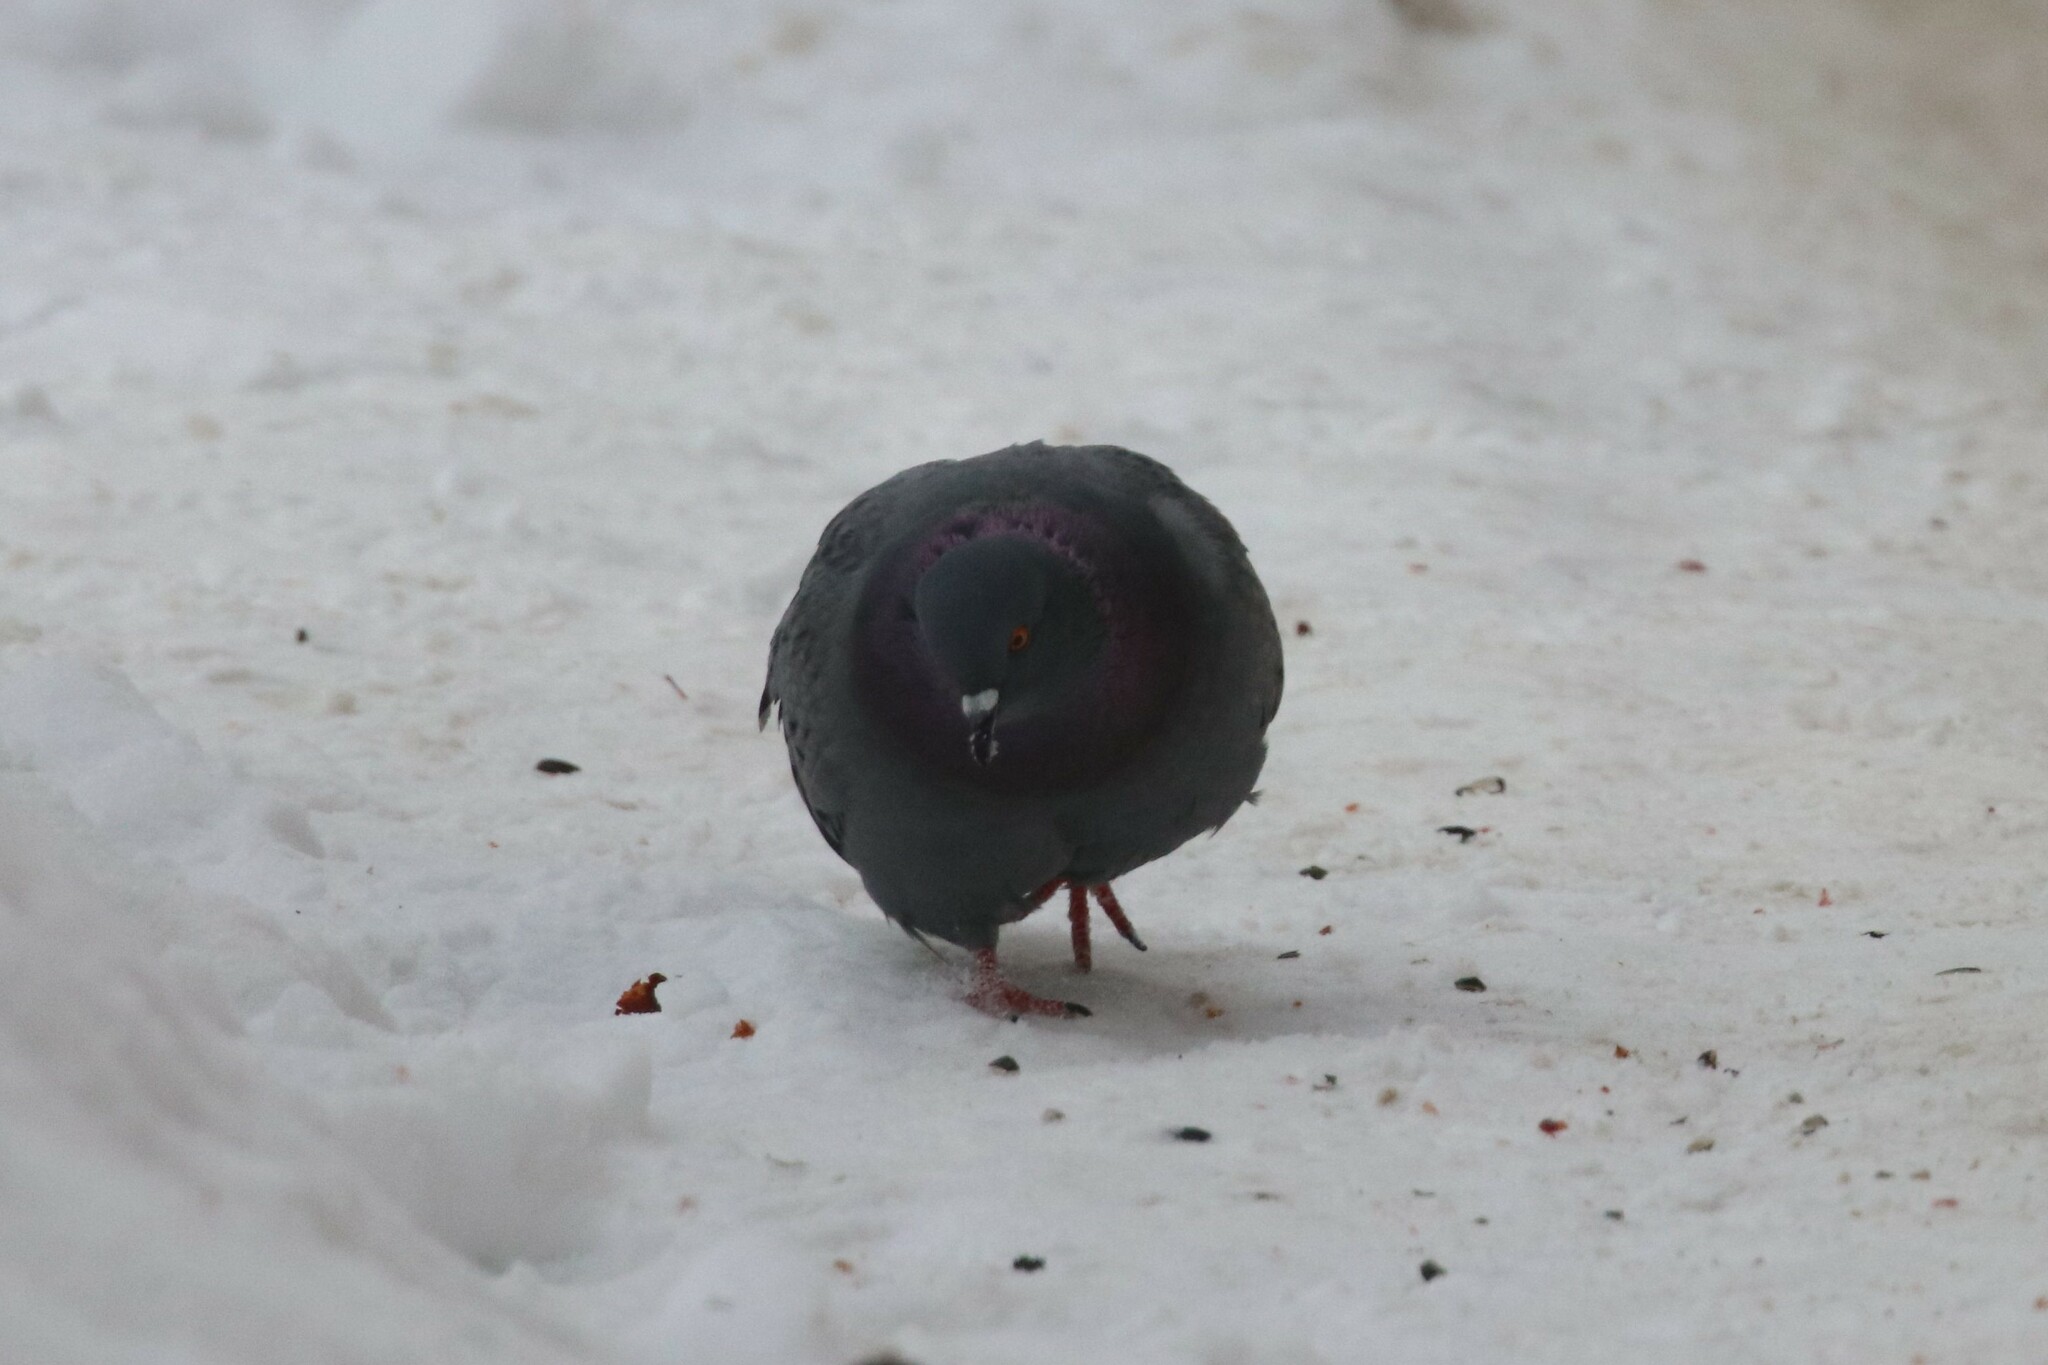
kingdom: Animalia
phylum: Chordata
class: Aves
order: Columbiformes
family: Columbidae
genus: Columba
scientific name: Columba livia
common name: Rock pigeon
